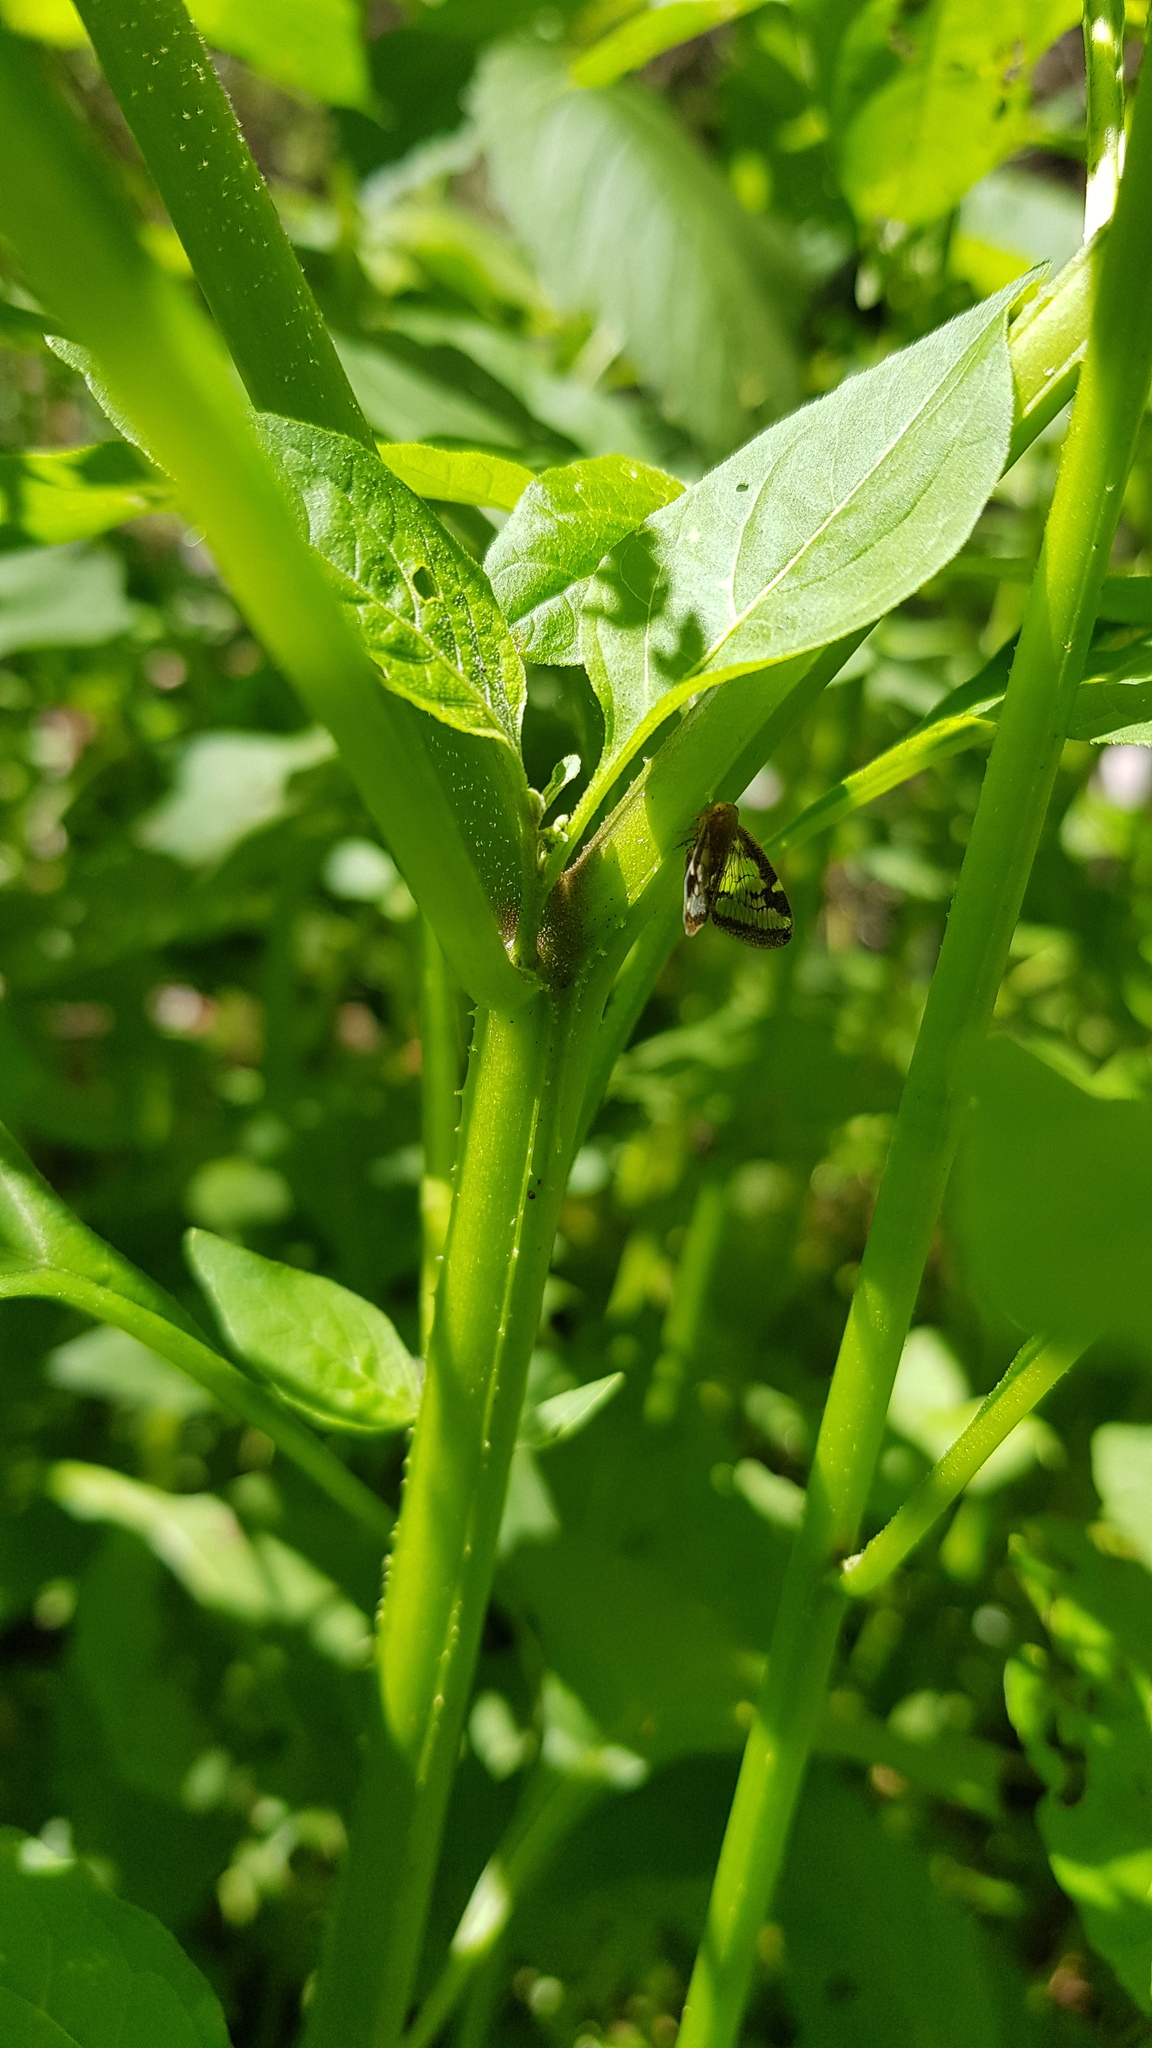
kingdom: Animalia
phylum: Arthropoda
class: Insecta
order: Hemiptera
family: Ricaniidae
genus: Scolypopa
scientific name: Scolypopa australis
